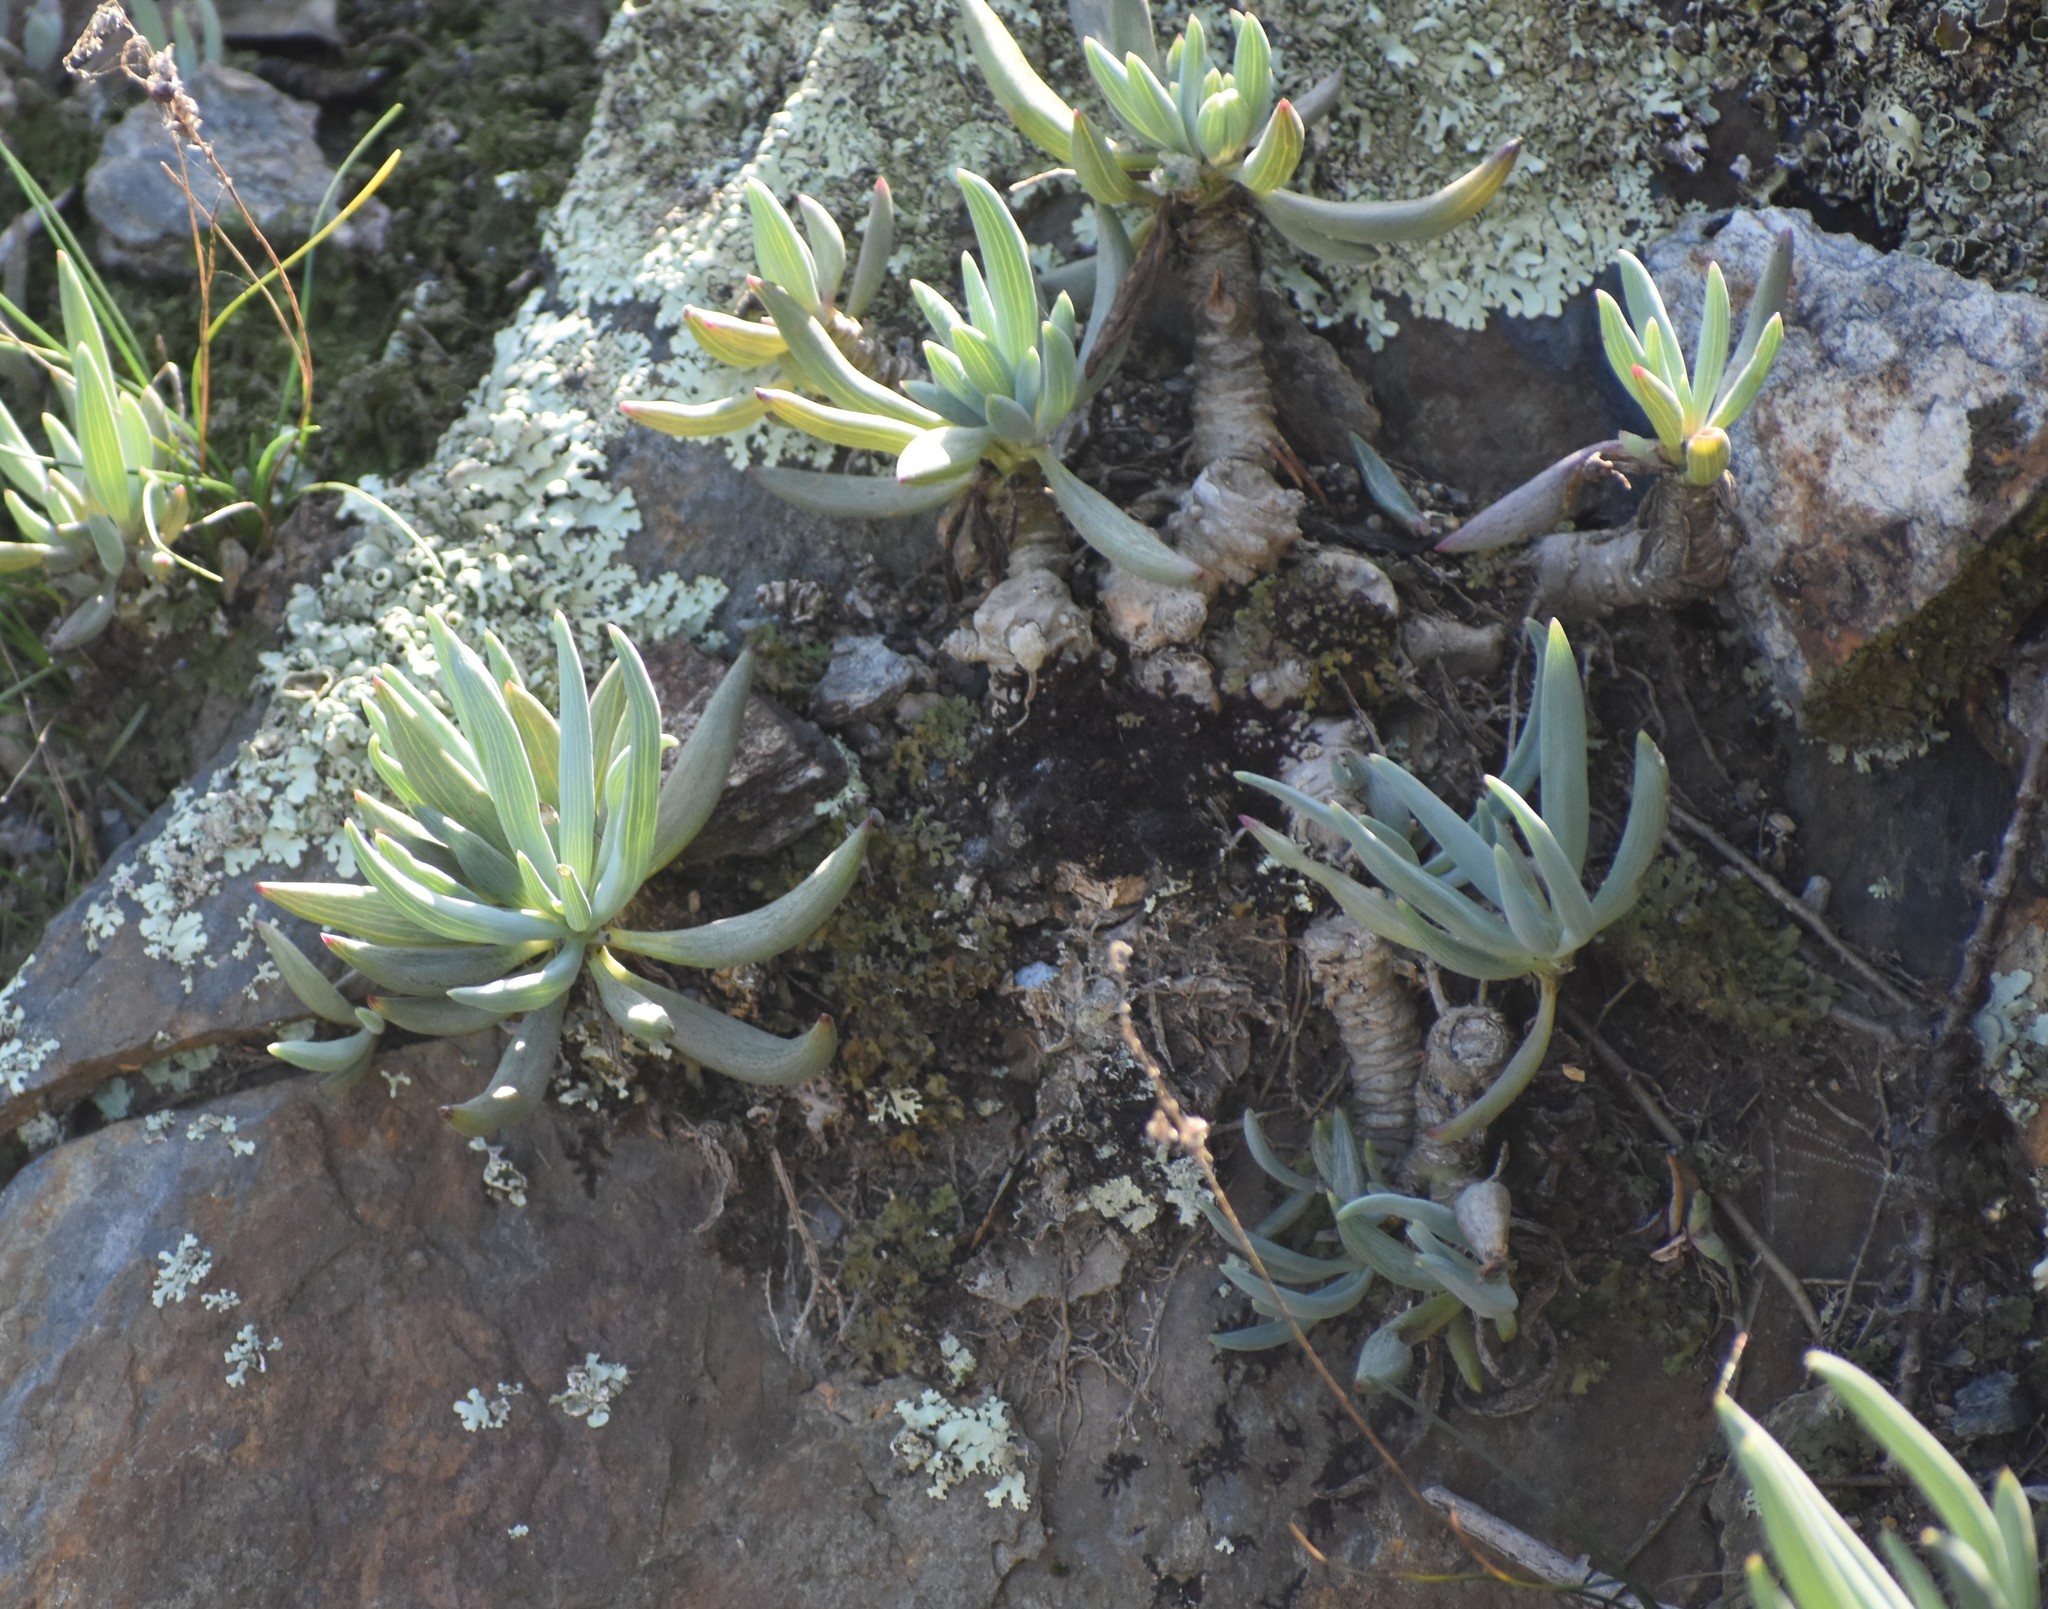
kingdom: Plantae
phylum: Tracheophyta
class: Magnoliopsida
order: Asterales
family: Asteraceae
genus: Curio
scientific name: Curio crassulifolius
